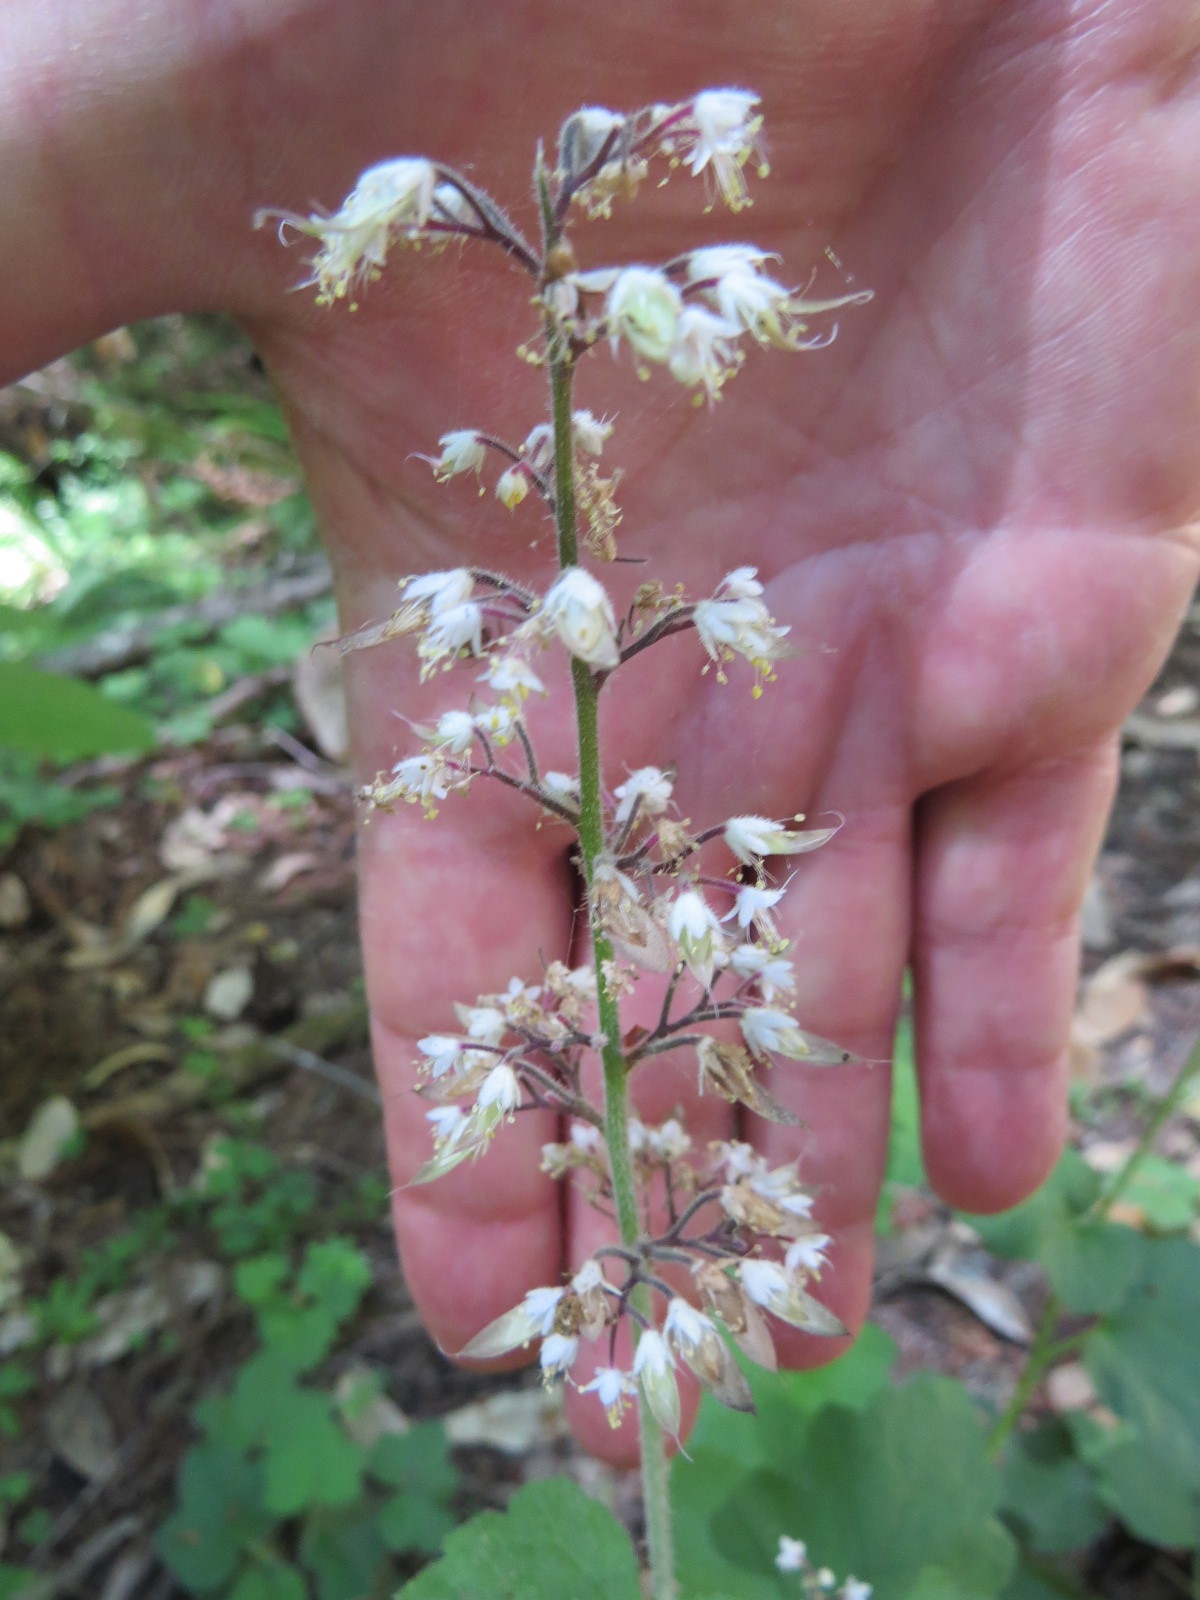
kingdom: Plantae
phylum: Tracheophyta
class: Magnoliopsida
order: Saxifragales
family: Saxifragaceae
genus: Tiarella
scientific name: Tiarella trifoliata
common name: Sugar-scoop
